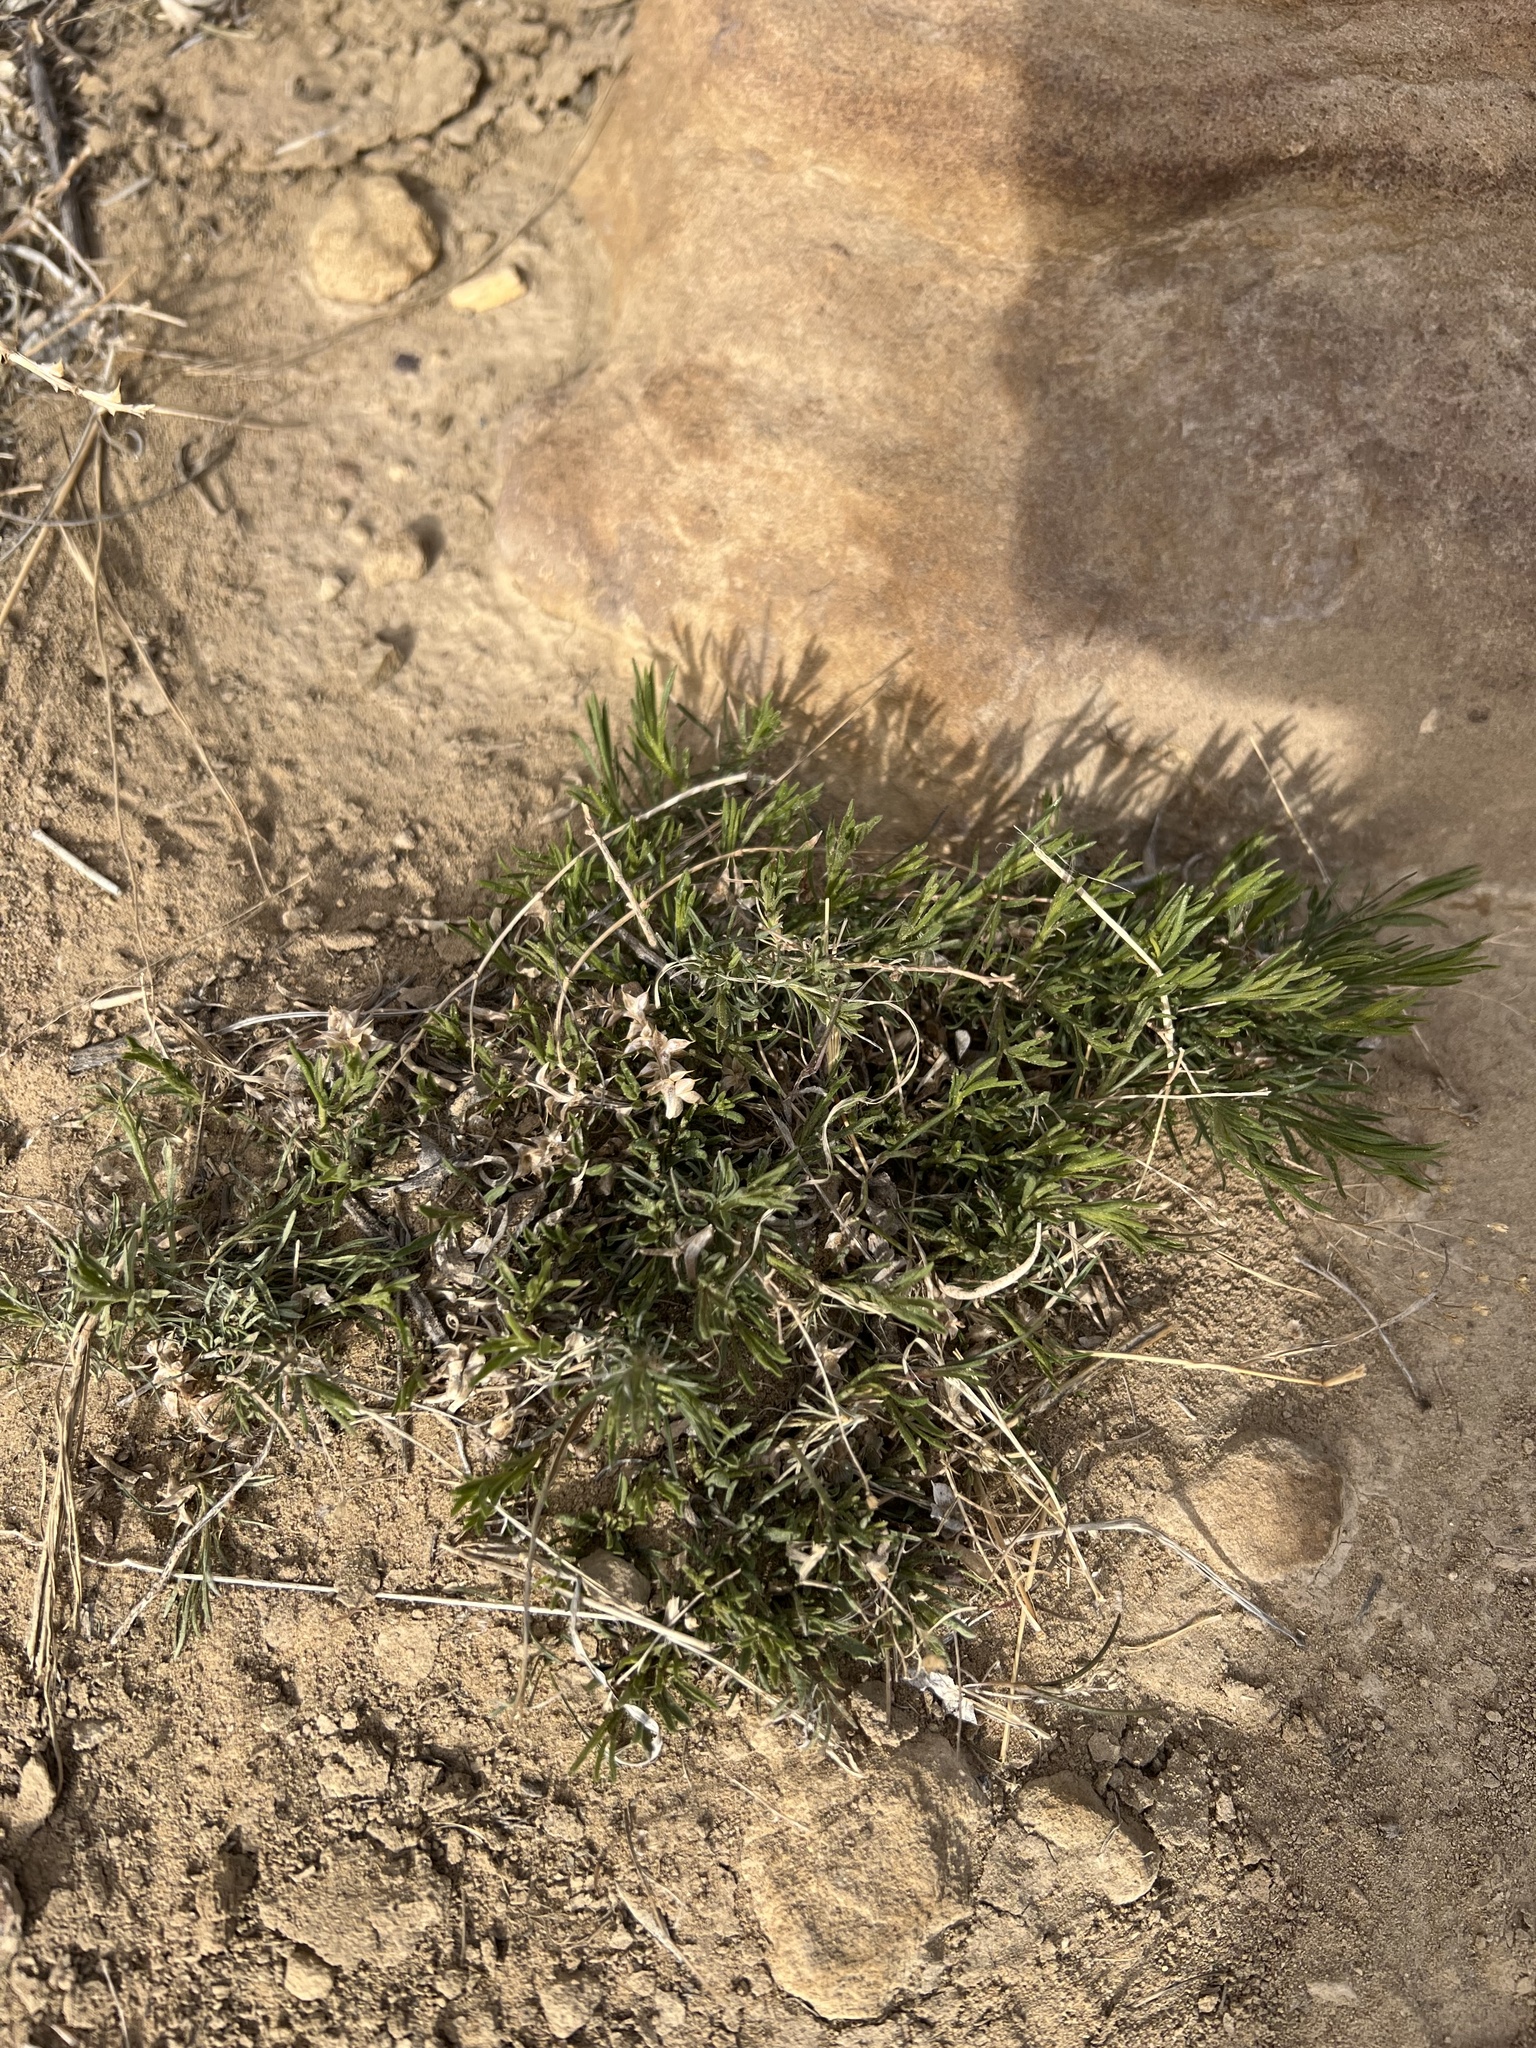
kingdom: Plantae
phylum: Tracheophyta
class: Magnoliopsida
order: Asterales
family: Asteraceae
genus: Gutierrezia
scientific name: Gutierrezia sarothrae
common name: Broom snakeweed
